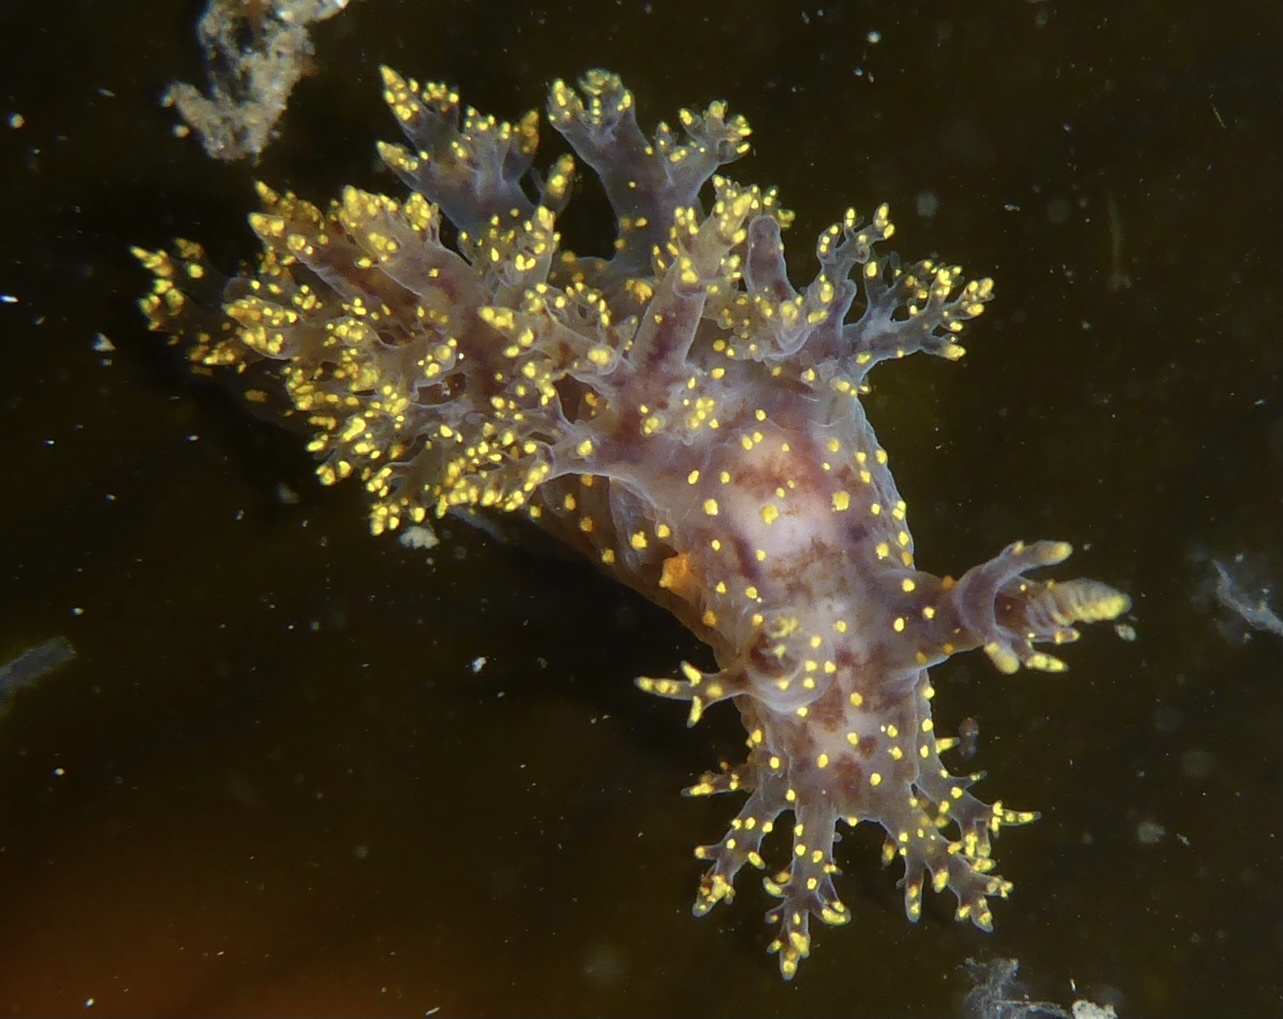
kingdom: Animalia
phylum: Mollusca
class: Gastropoda
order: Nudibranchia
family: Dendronotidae
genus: Dendronotus
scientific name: Dendronotus venustus
